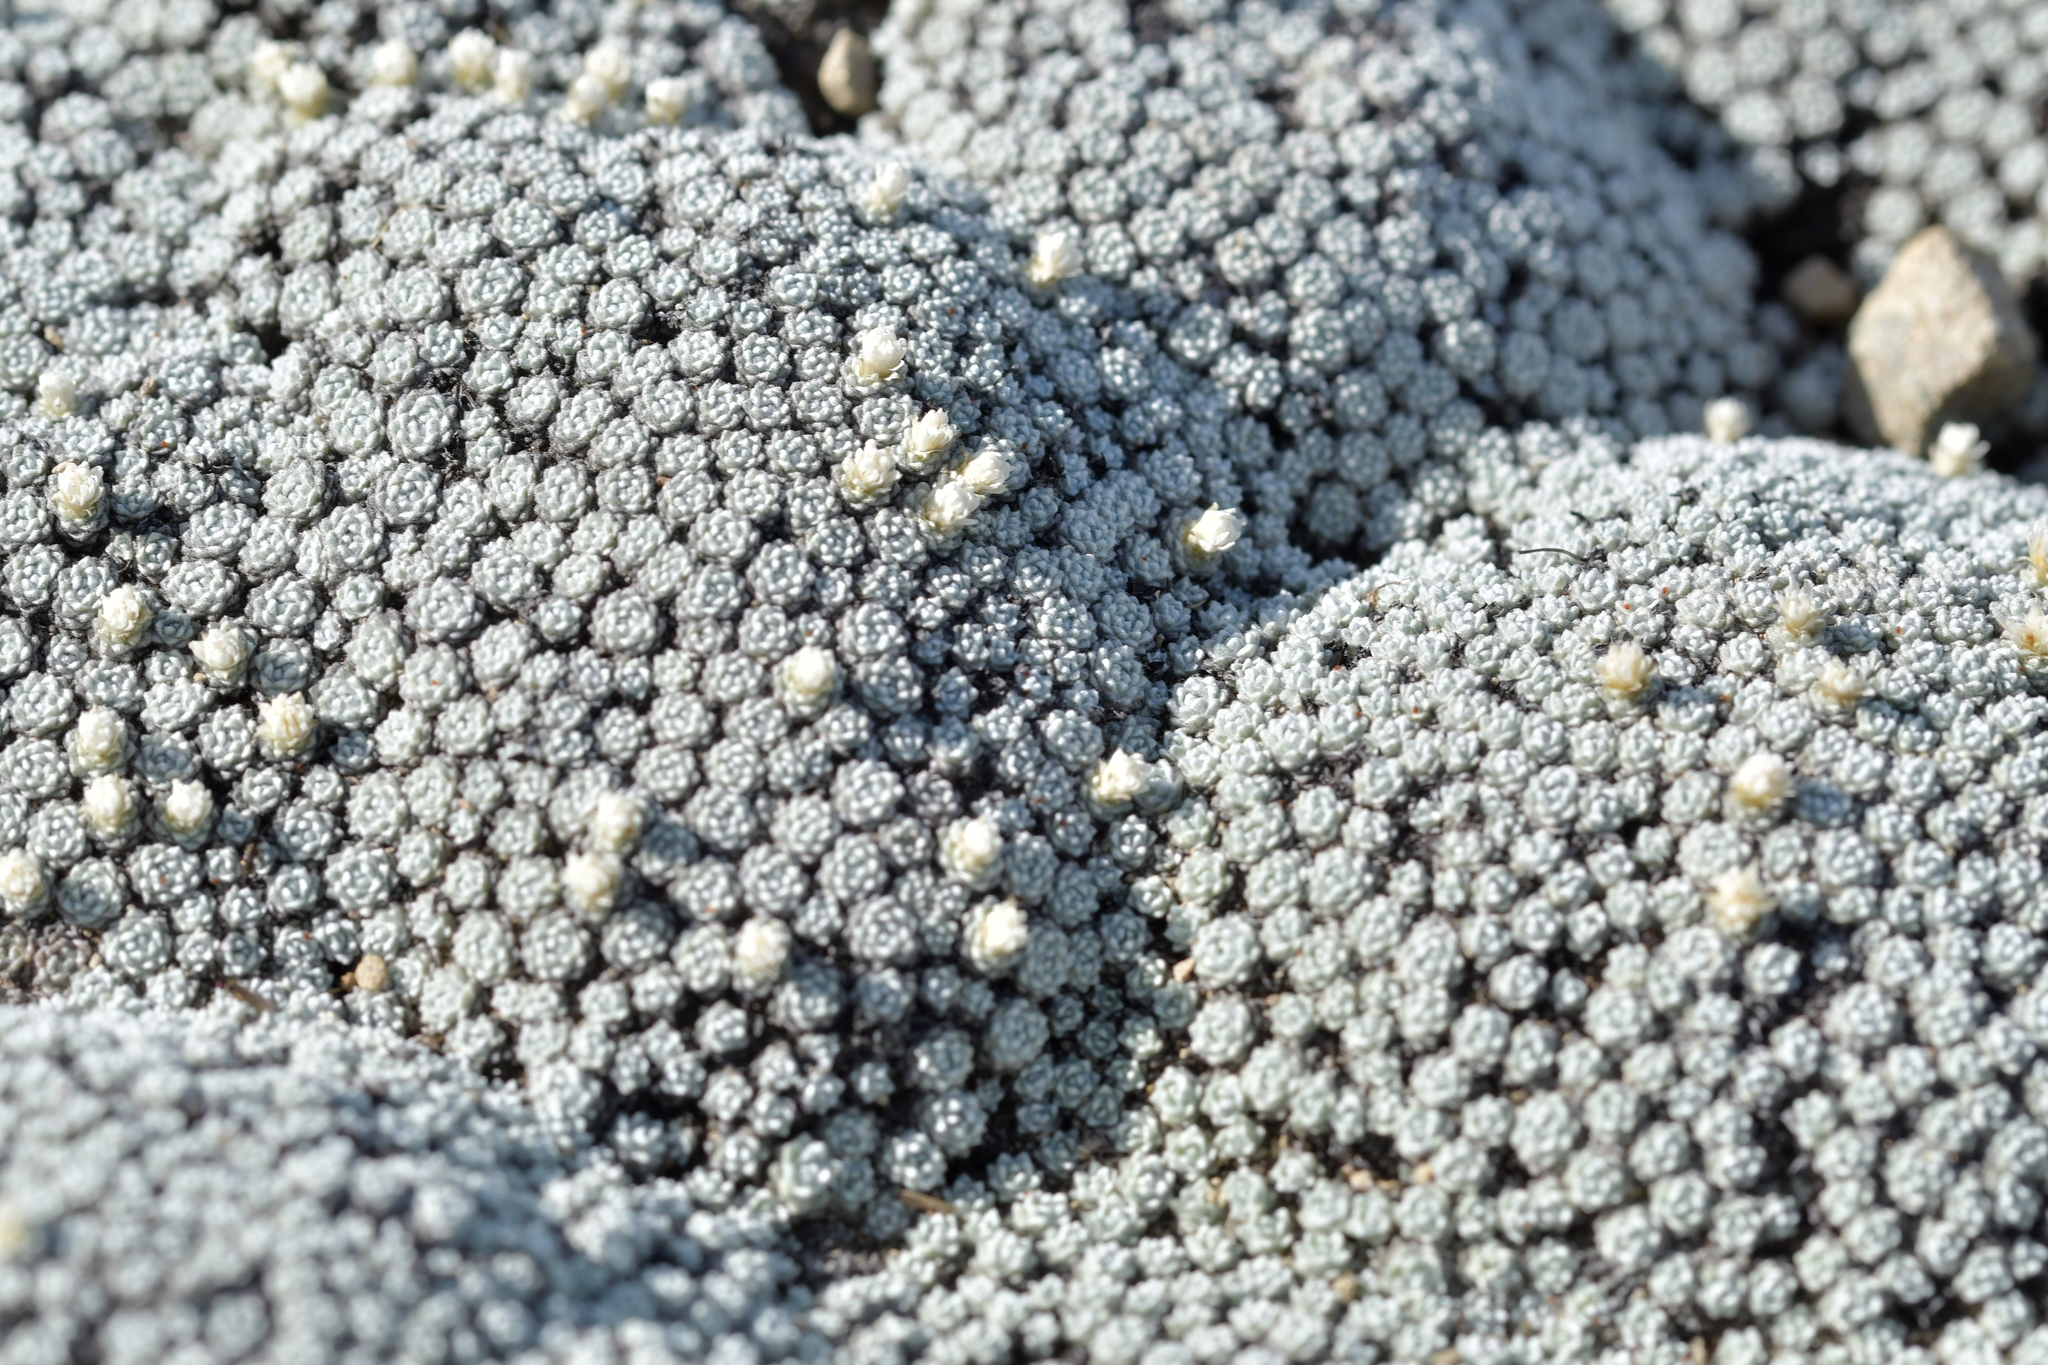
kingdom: Plantae
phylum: Tracheophyta
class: Magnoliopsida
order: Asterales
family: Asteraceae
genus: Raoulia
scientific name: Raoulia bryoides
